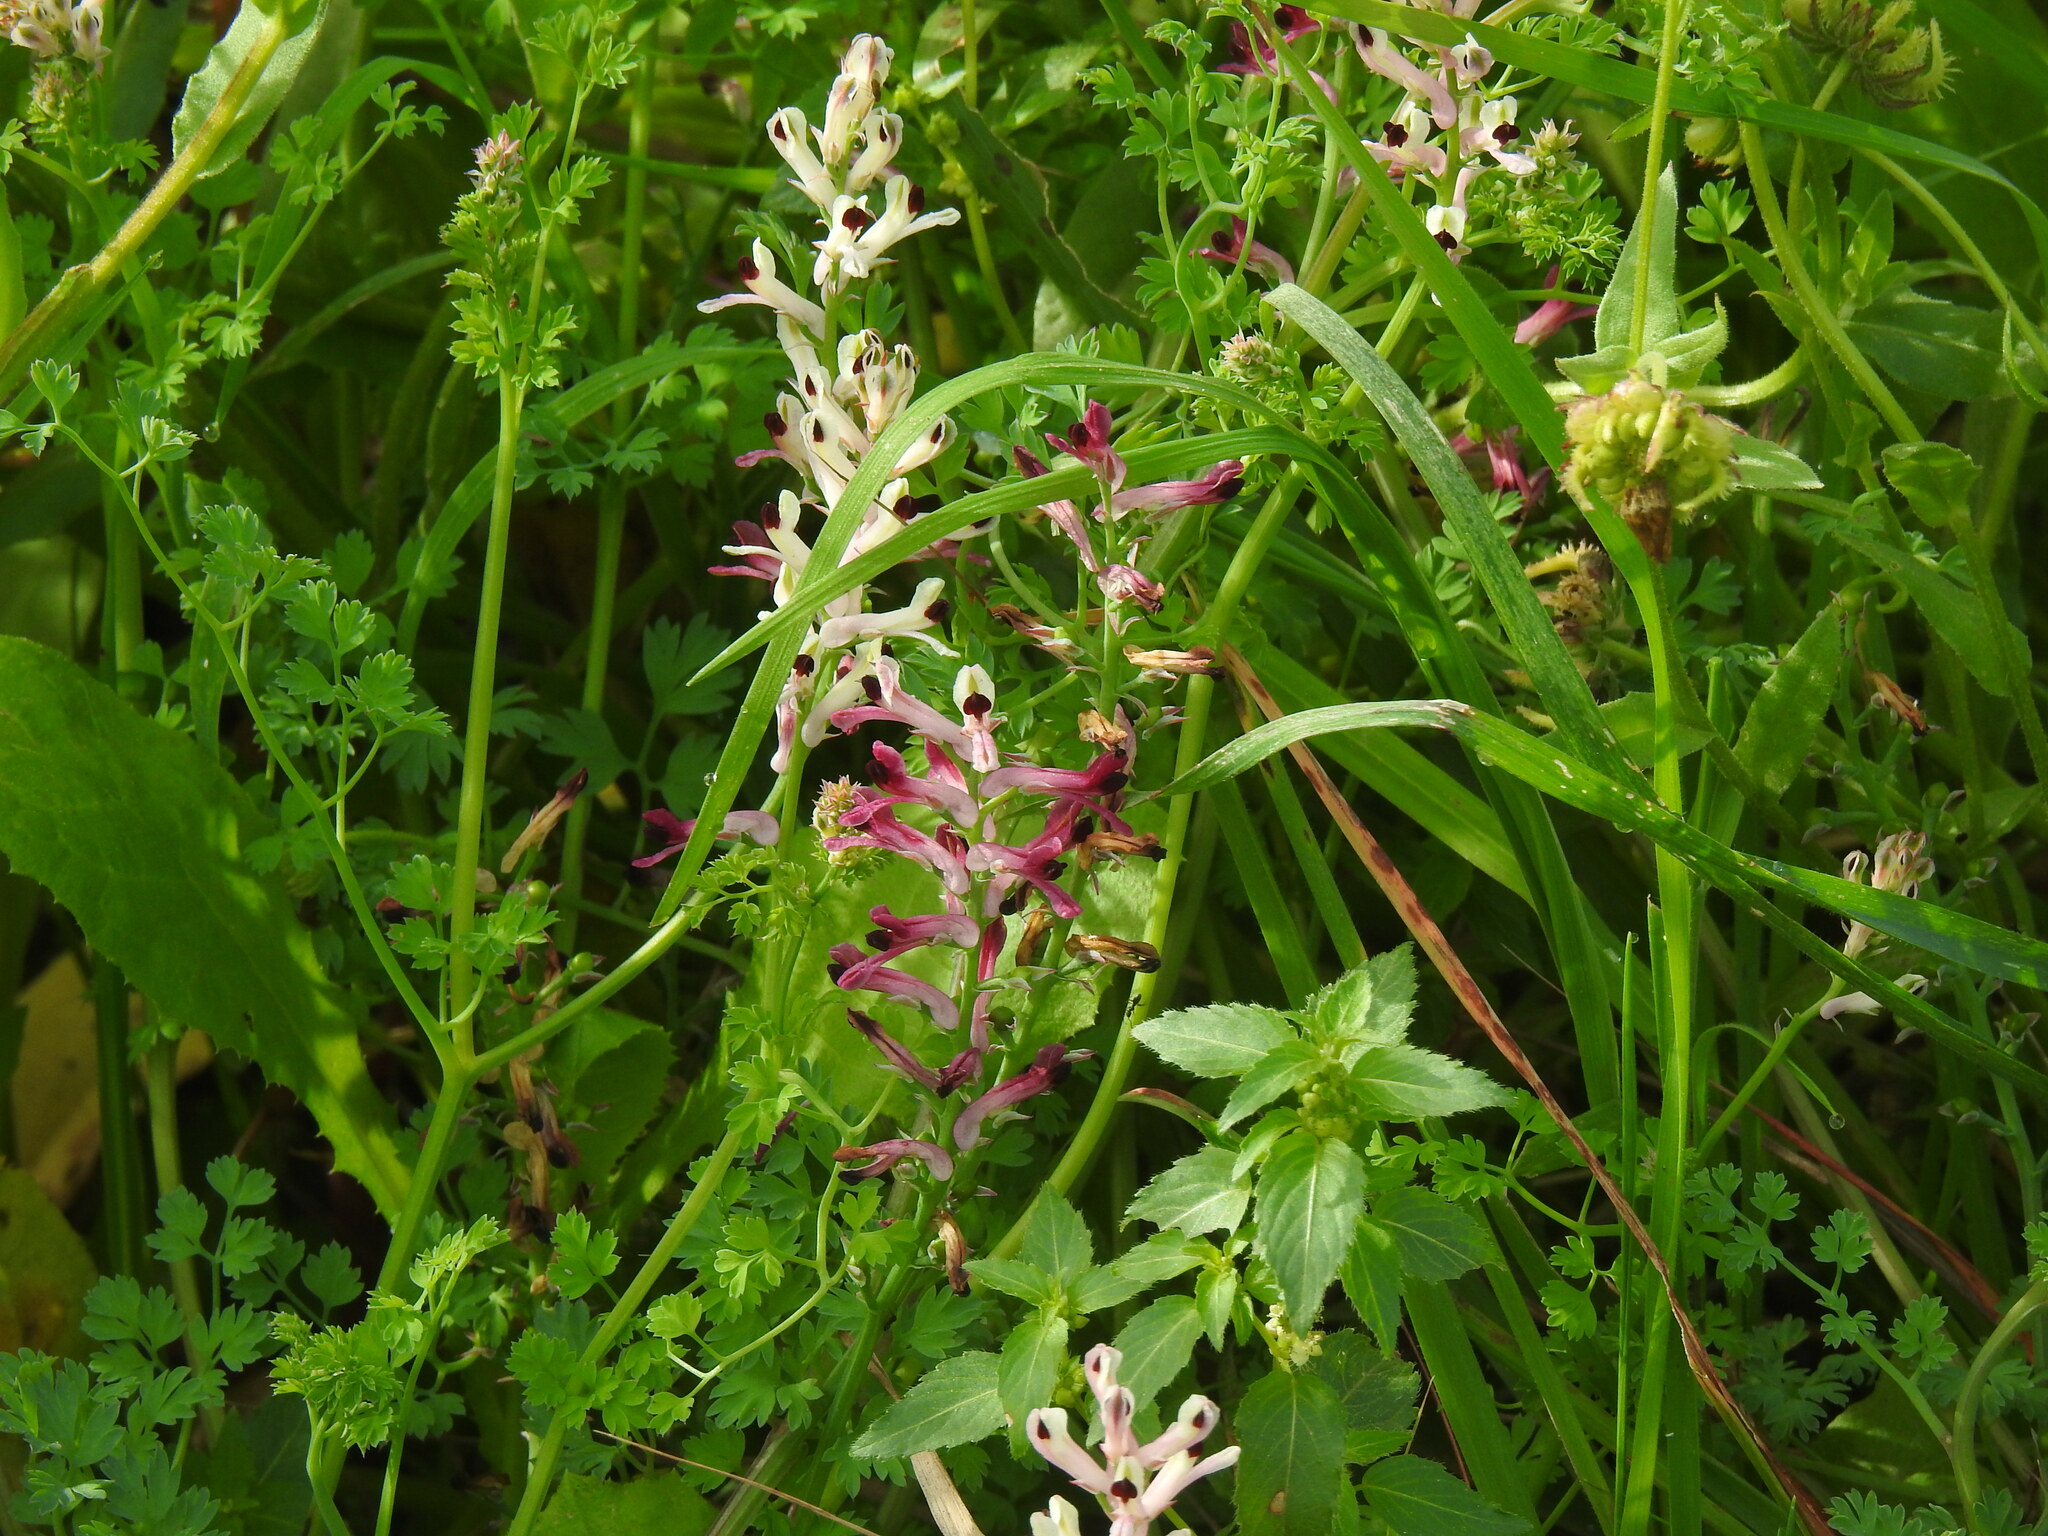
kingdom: Plantae
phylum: Tracheophyta
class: Magnoliopsida
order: Ranunculales
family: Papaveraceae
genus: Fumaria
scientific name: Fumaria agraria
